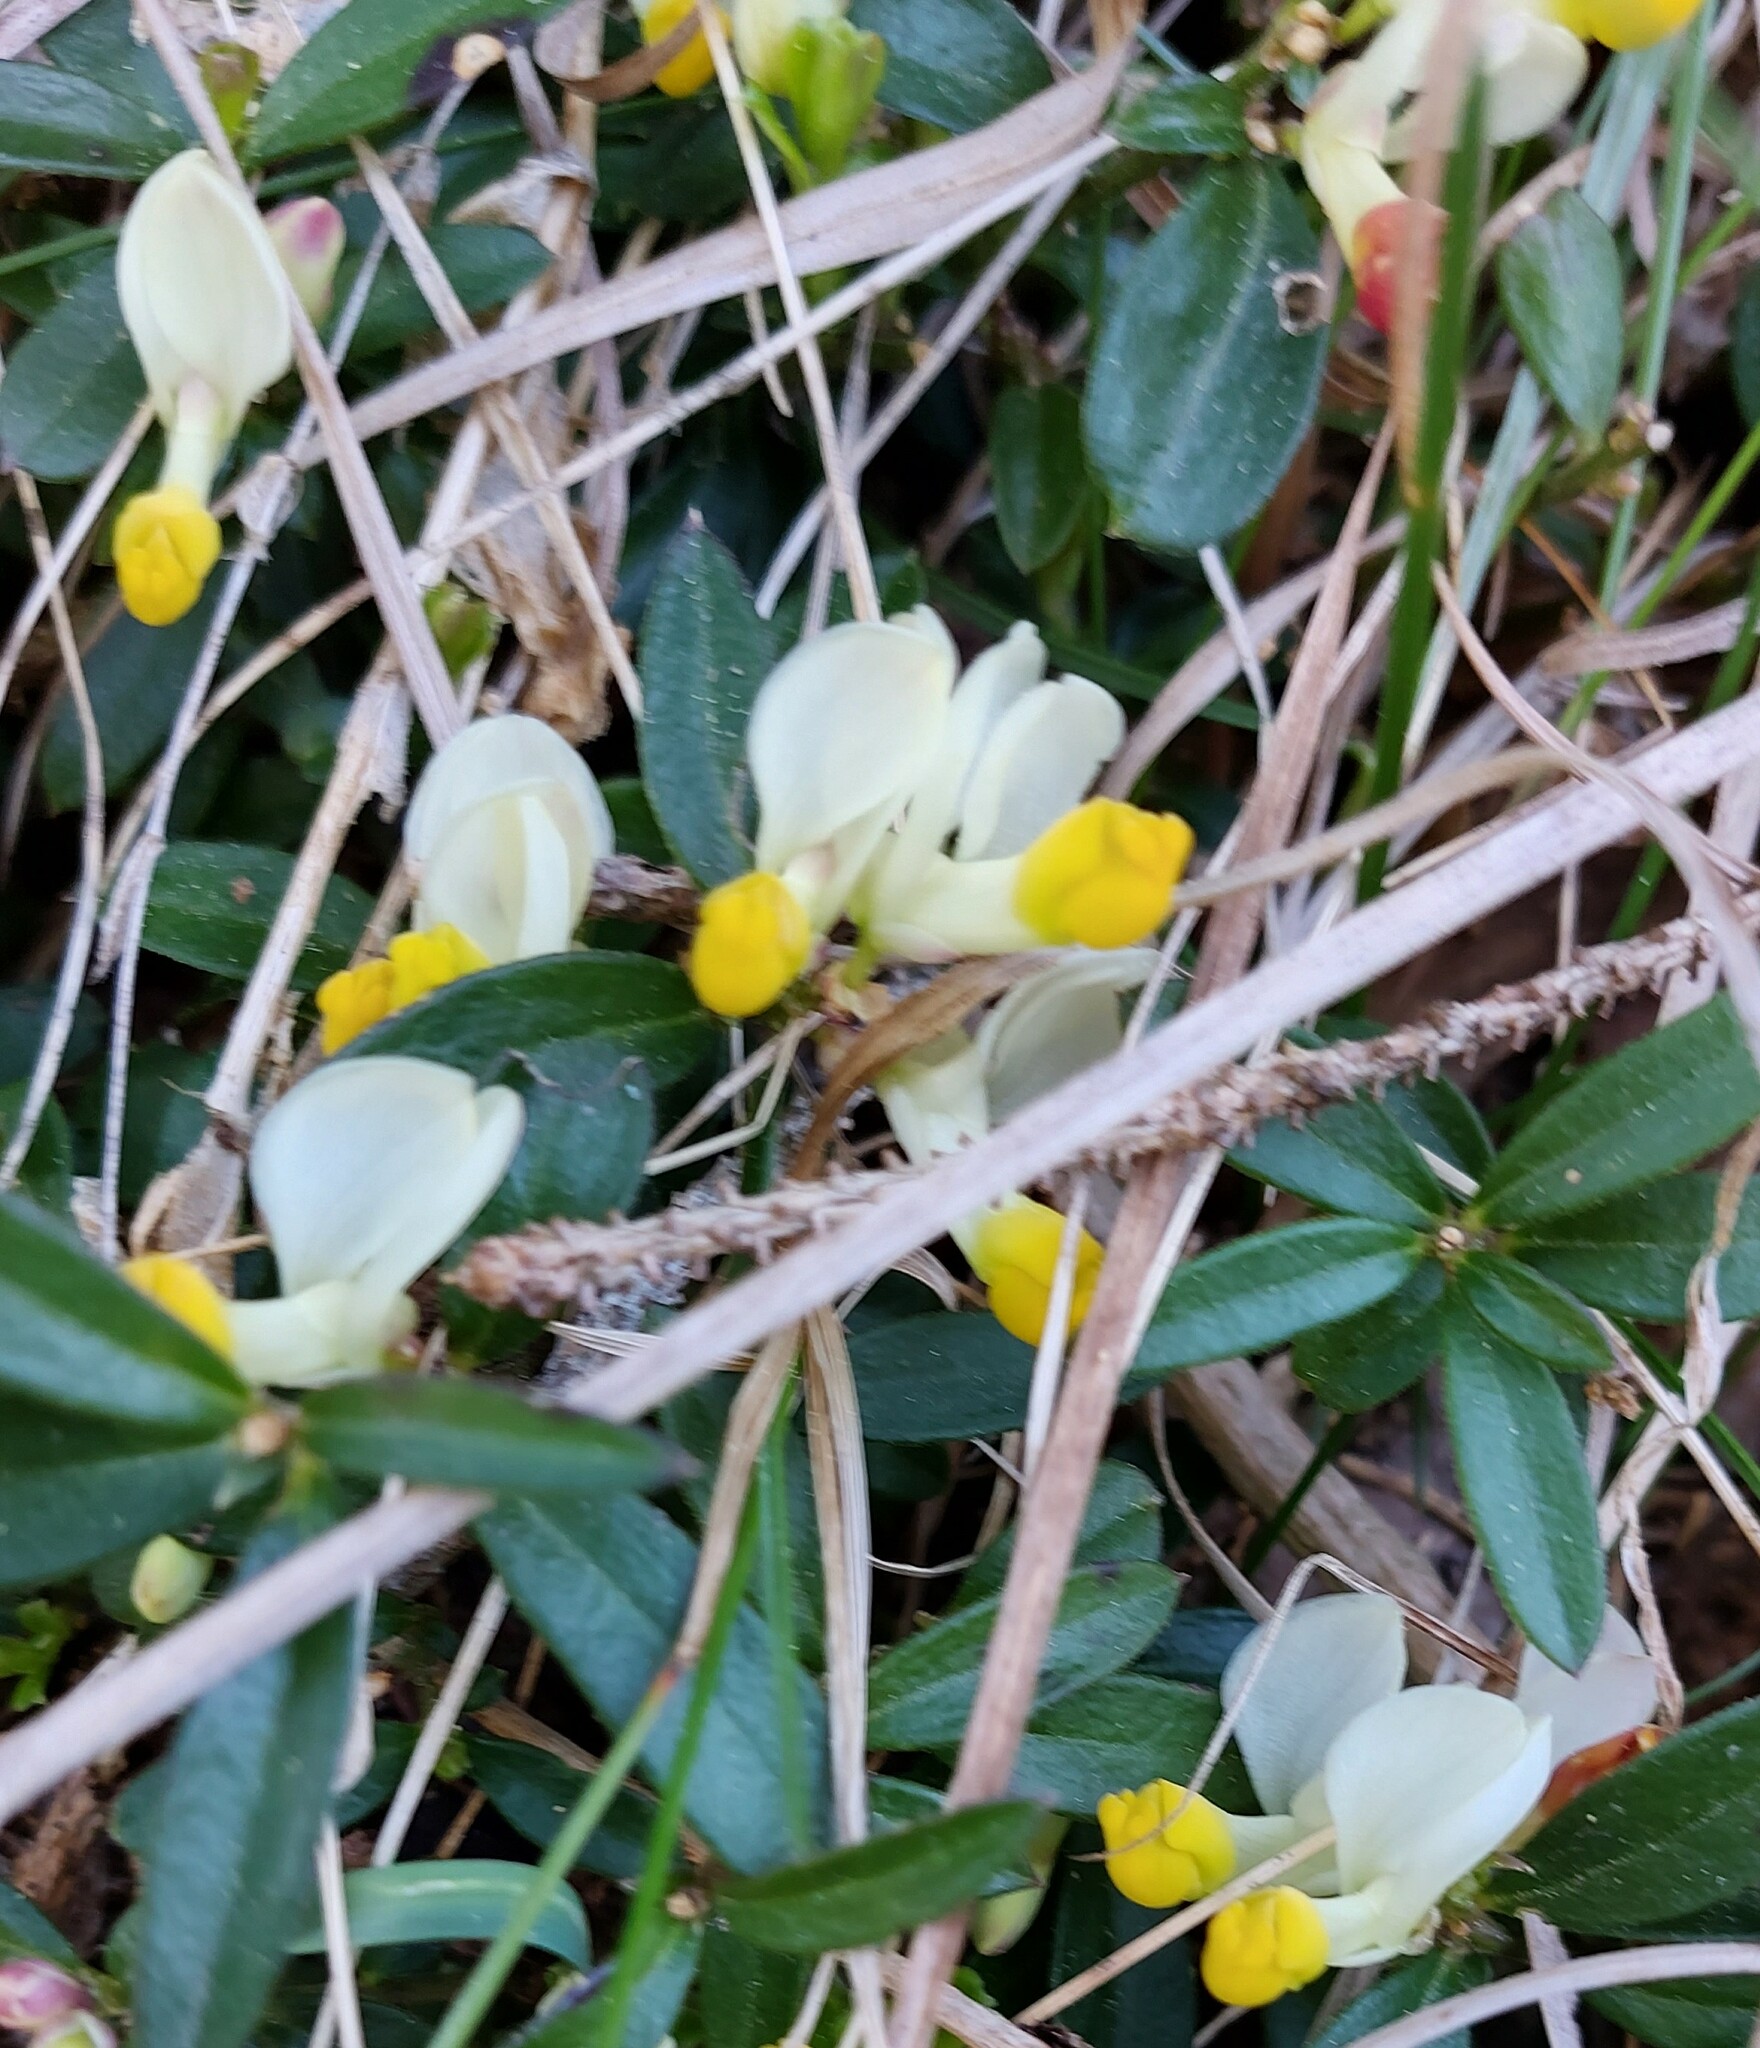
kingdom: Plantae
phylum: Tracheophyta
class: Magnoliopsida
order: Fabales
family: Polygalaceae
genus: Polygaloides
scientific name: Polygaloides chamaebuxus
